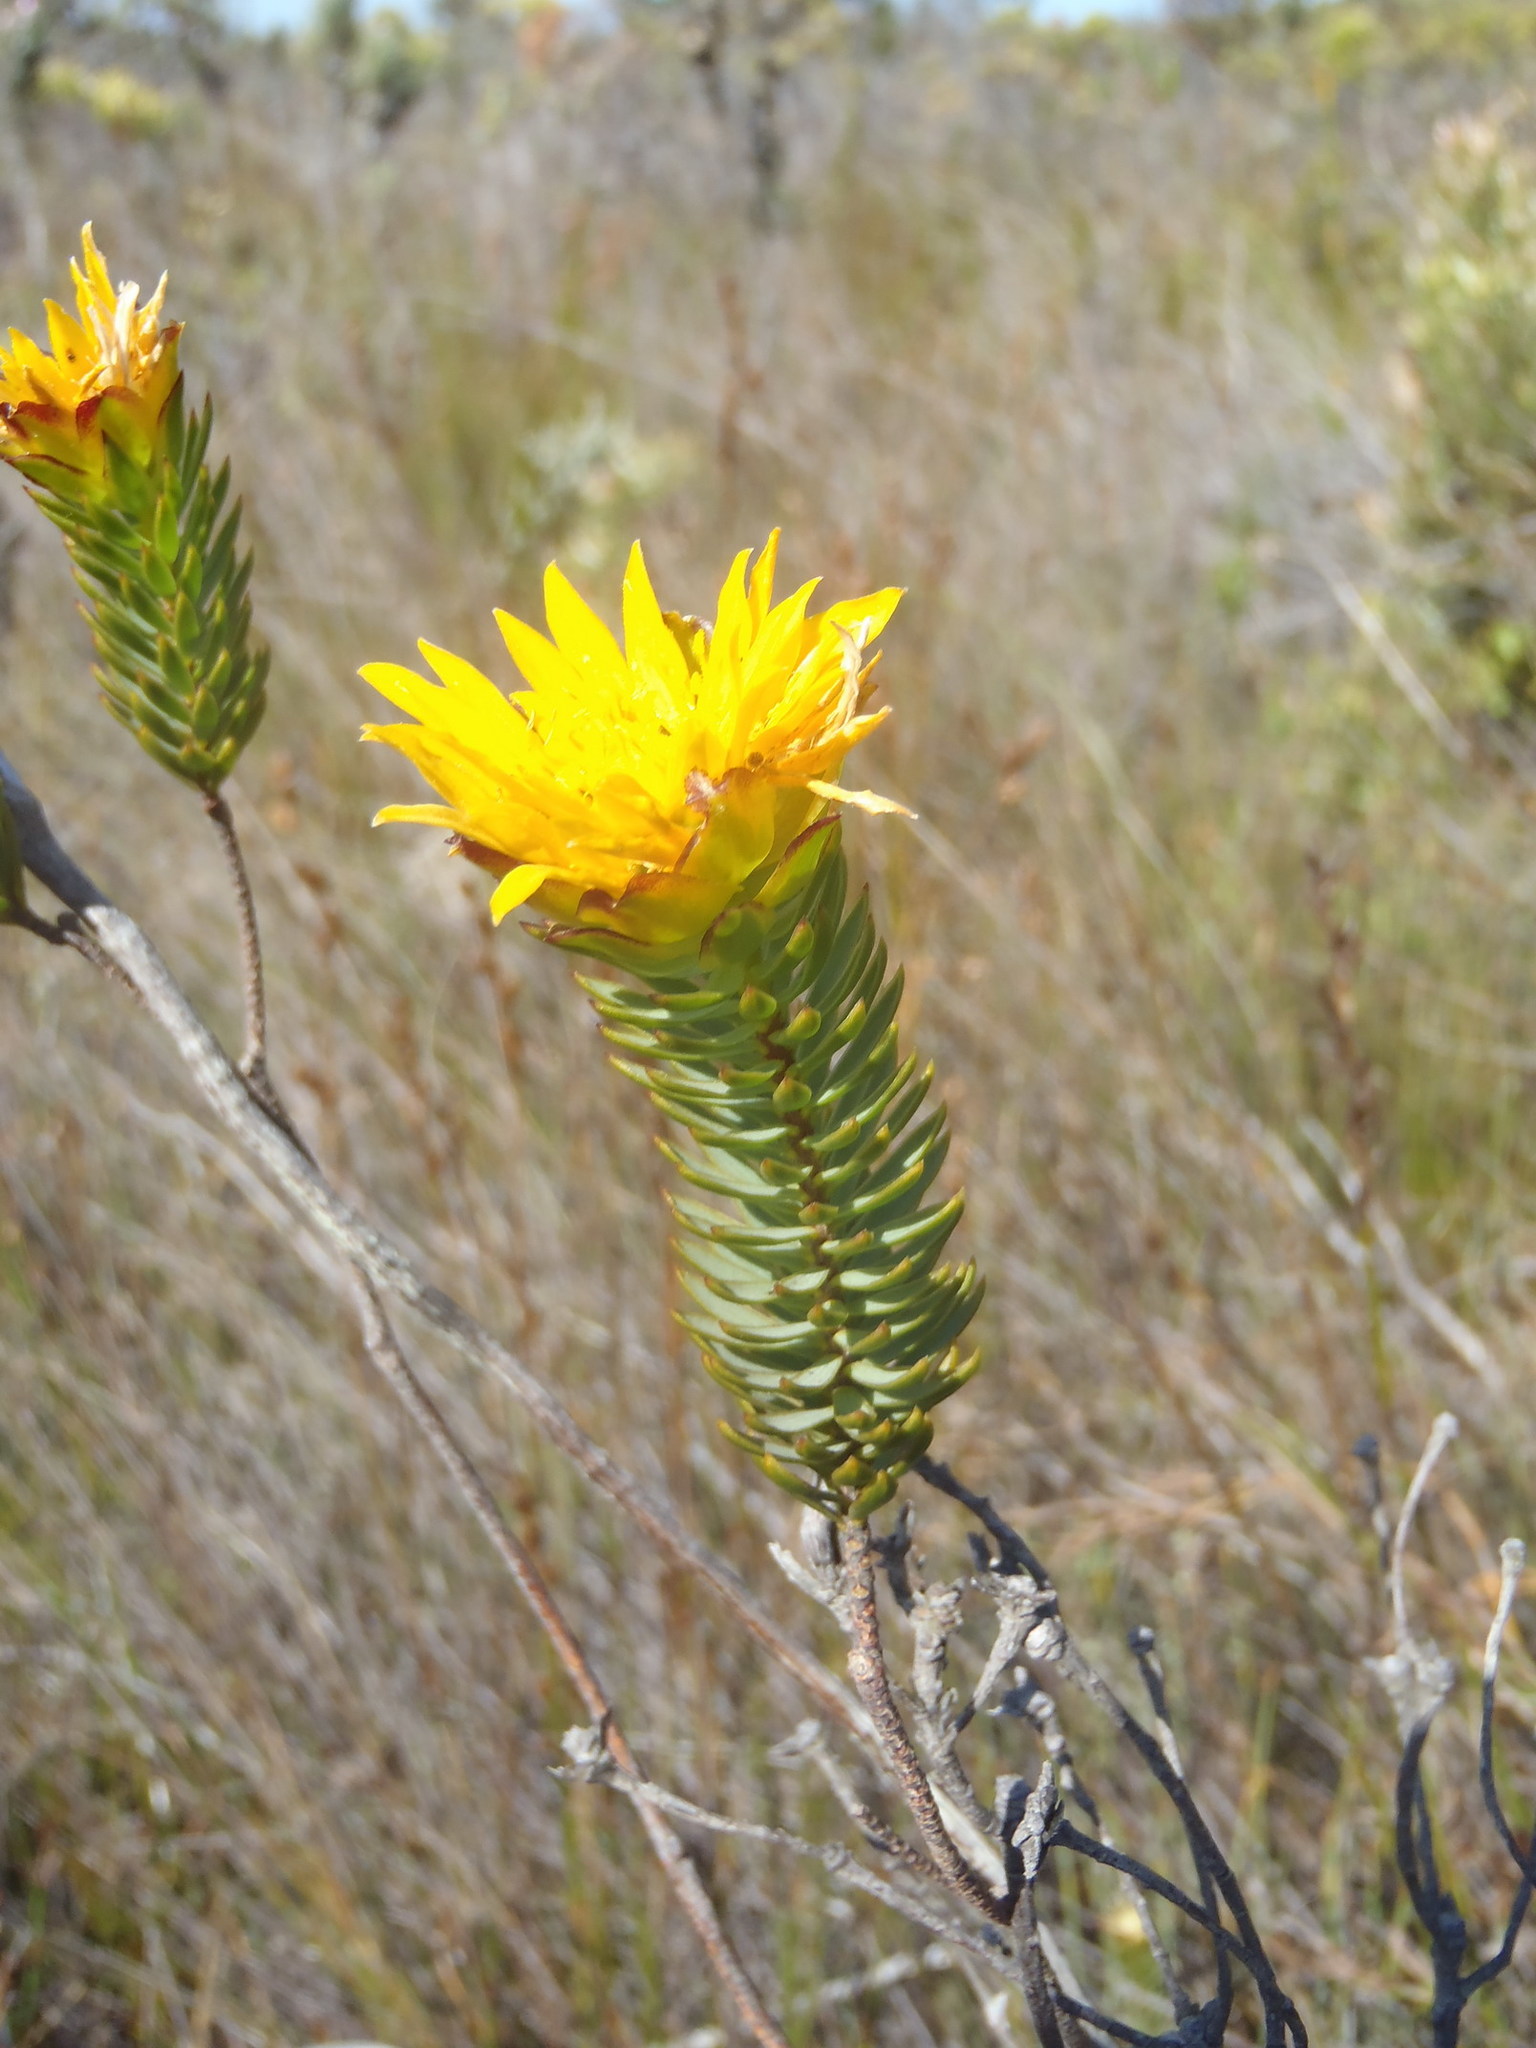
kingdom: Plantae
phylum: Tracheophyta
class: Magnoliopsida
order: Malvales
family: Thymelaeaceae
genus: Lachnaea
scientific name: Lachnaea aurea
